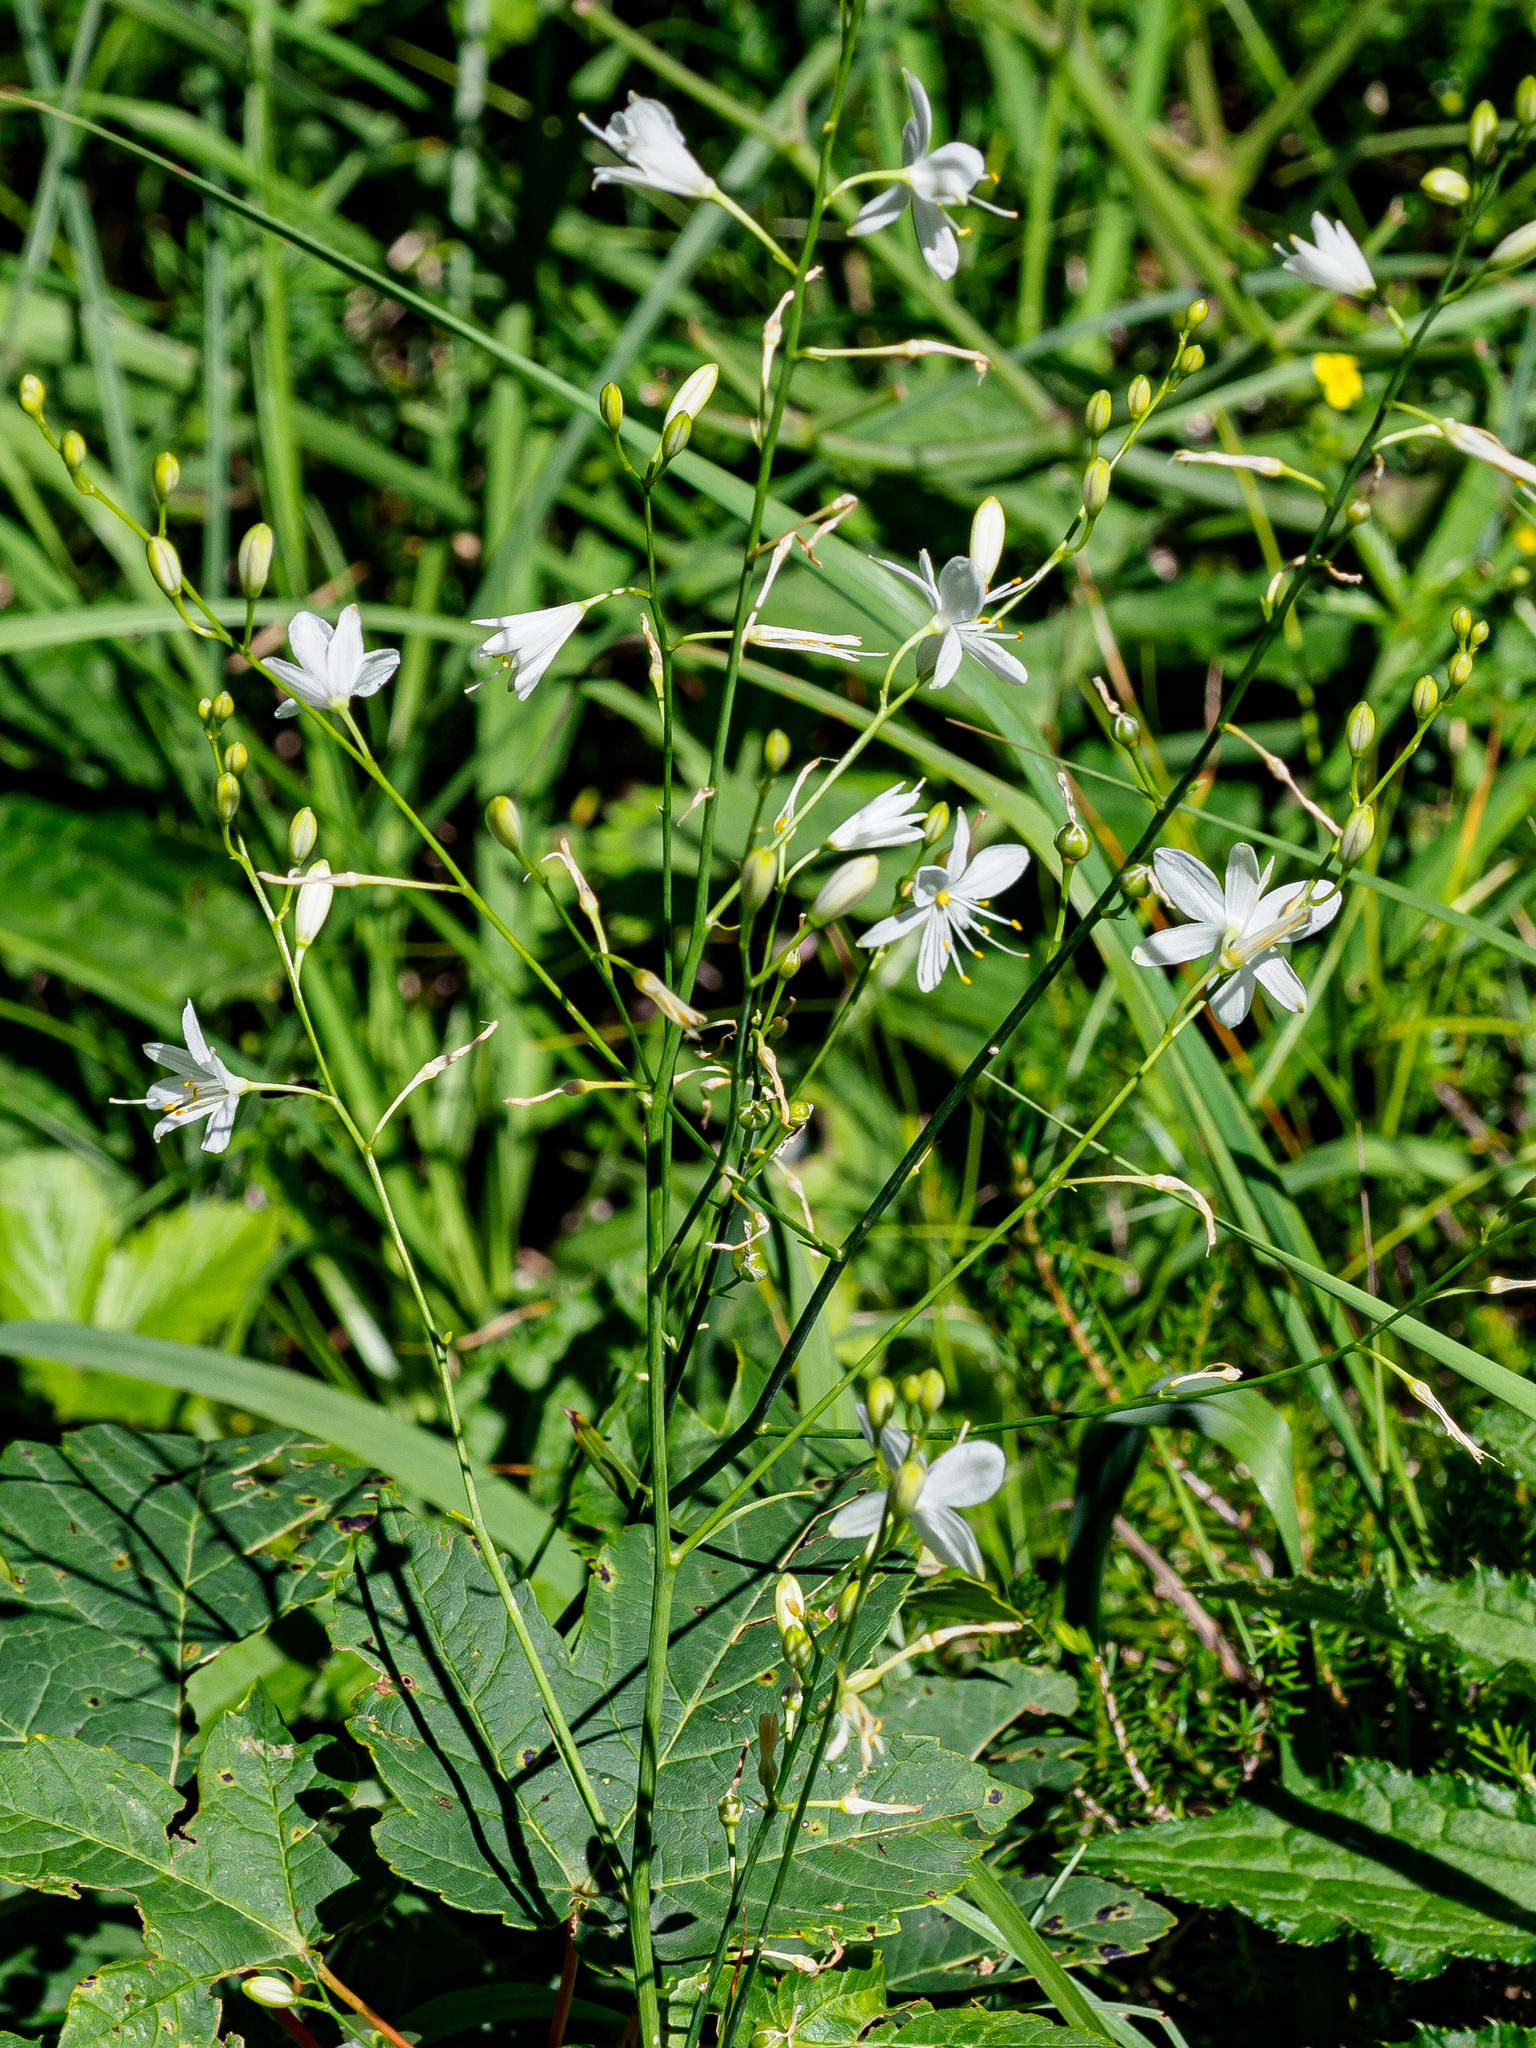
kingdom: Plantae
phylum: Tracheophyta
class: Liliopsida
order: Asparagales
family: Asparagaceae
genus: Anthericum
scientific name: Anthericum ramosum
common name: Branched st. bernard's-lily
